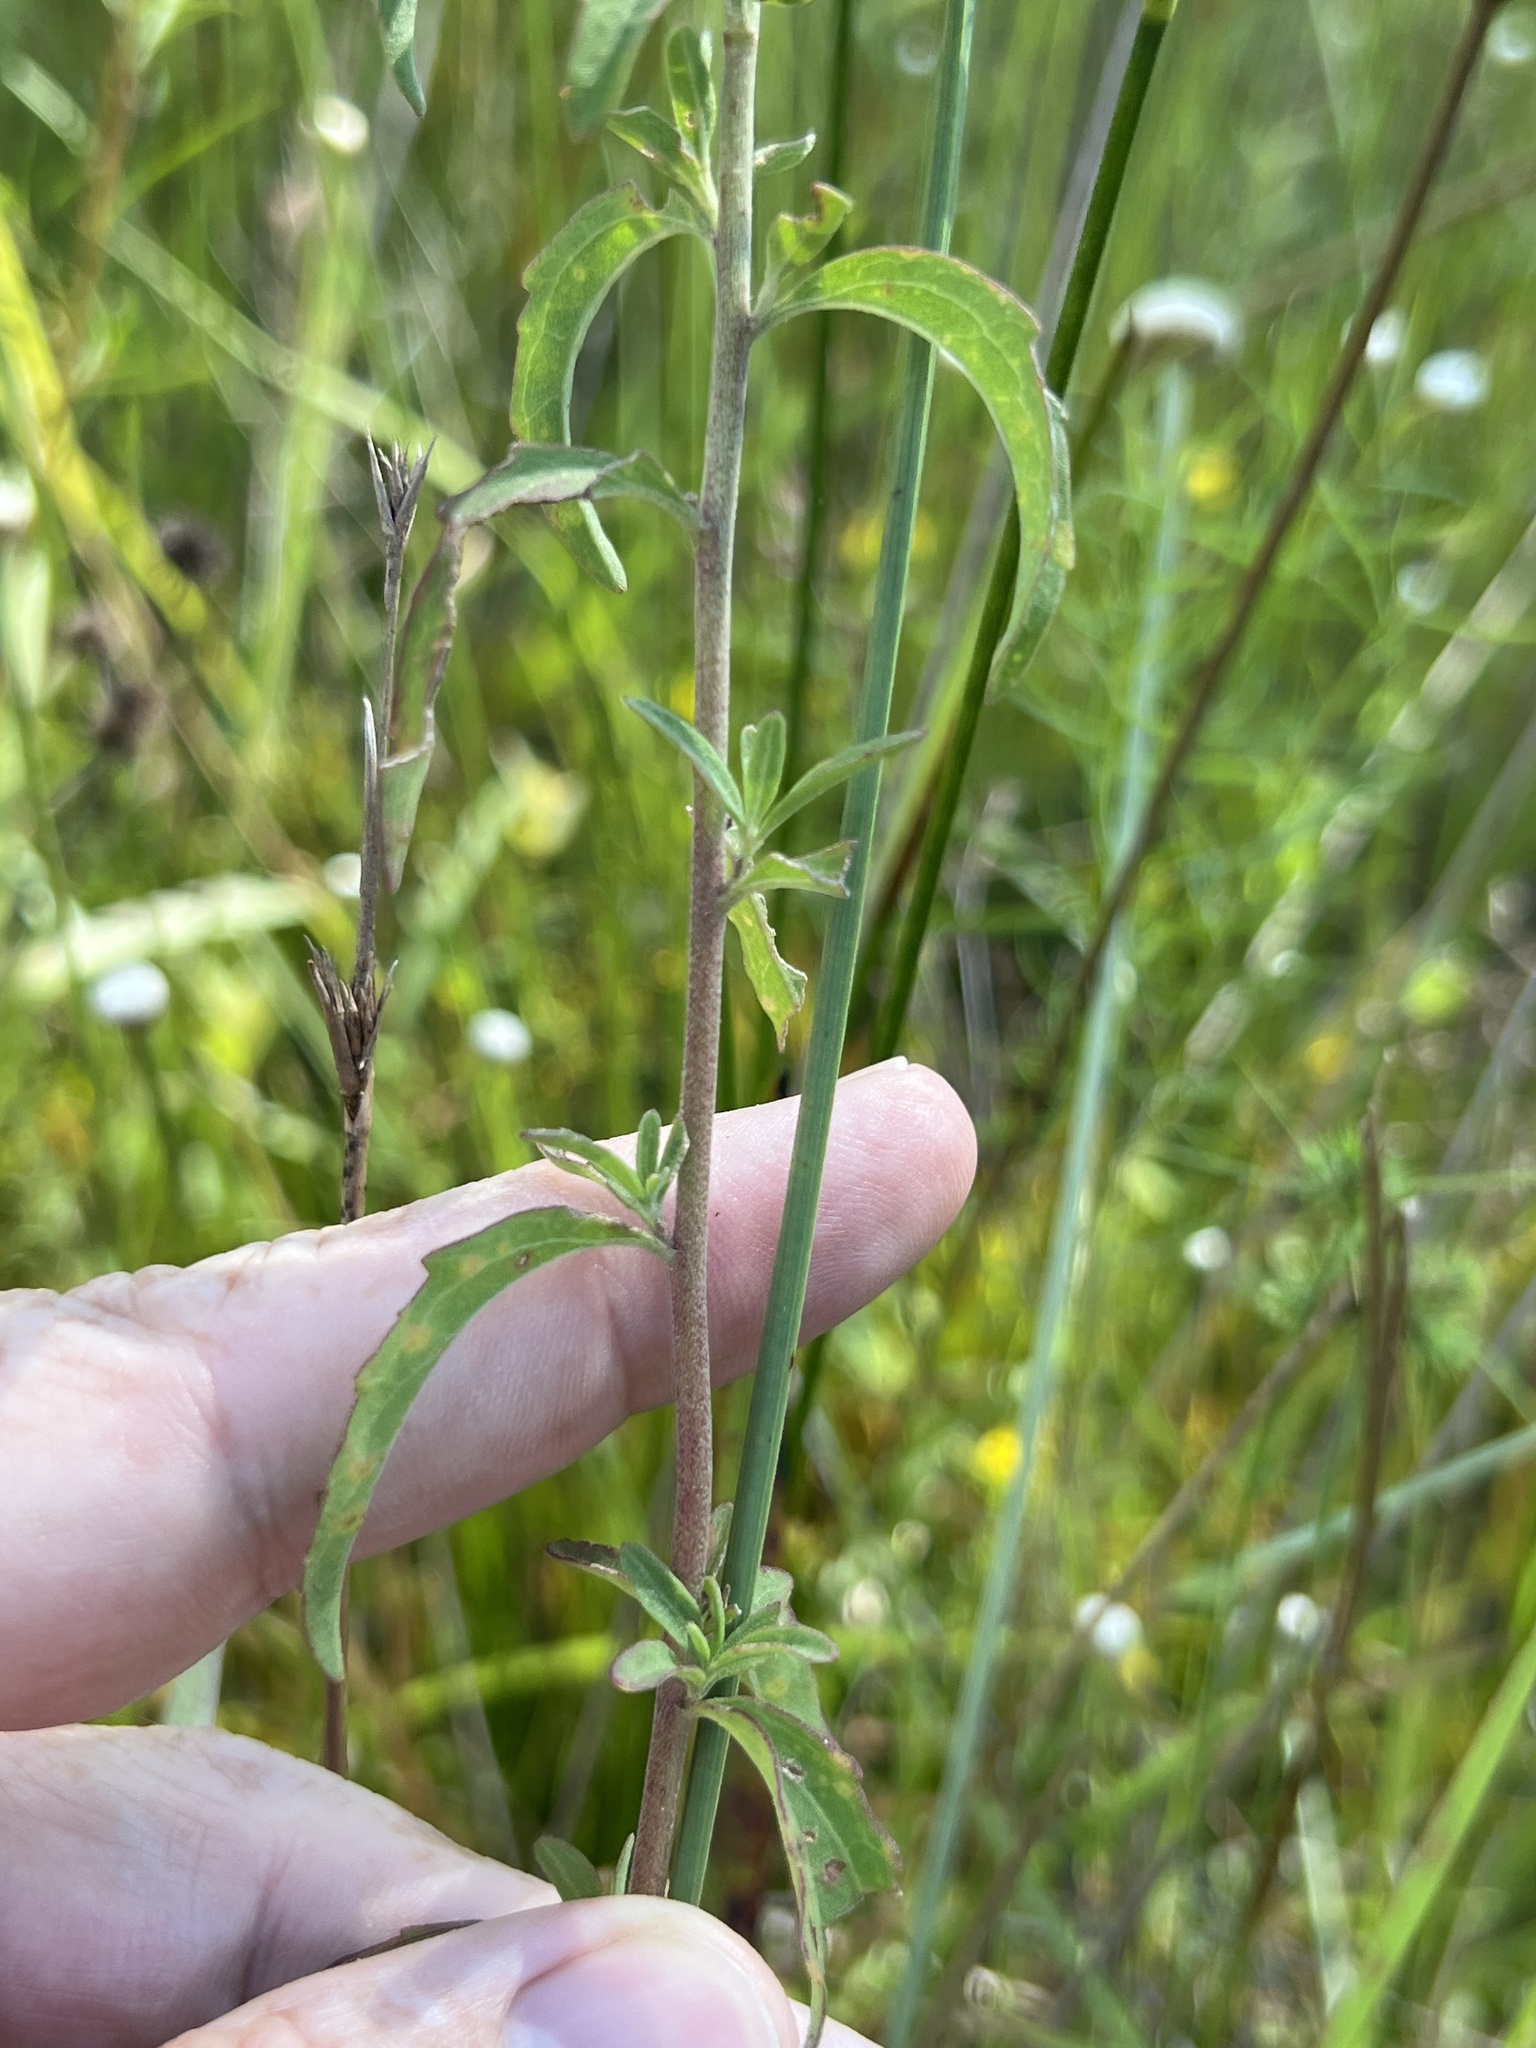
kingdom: Plantae
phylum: Tracheophyta
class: Magnoliopsida
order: Asterales
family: Asteraceae
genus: Eupatorium
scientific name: Eupatorium mohrii
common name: Mohr's thoroughwort
